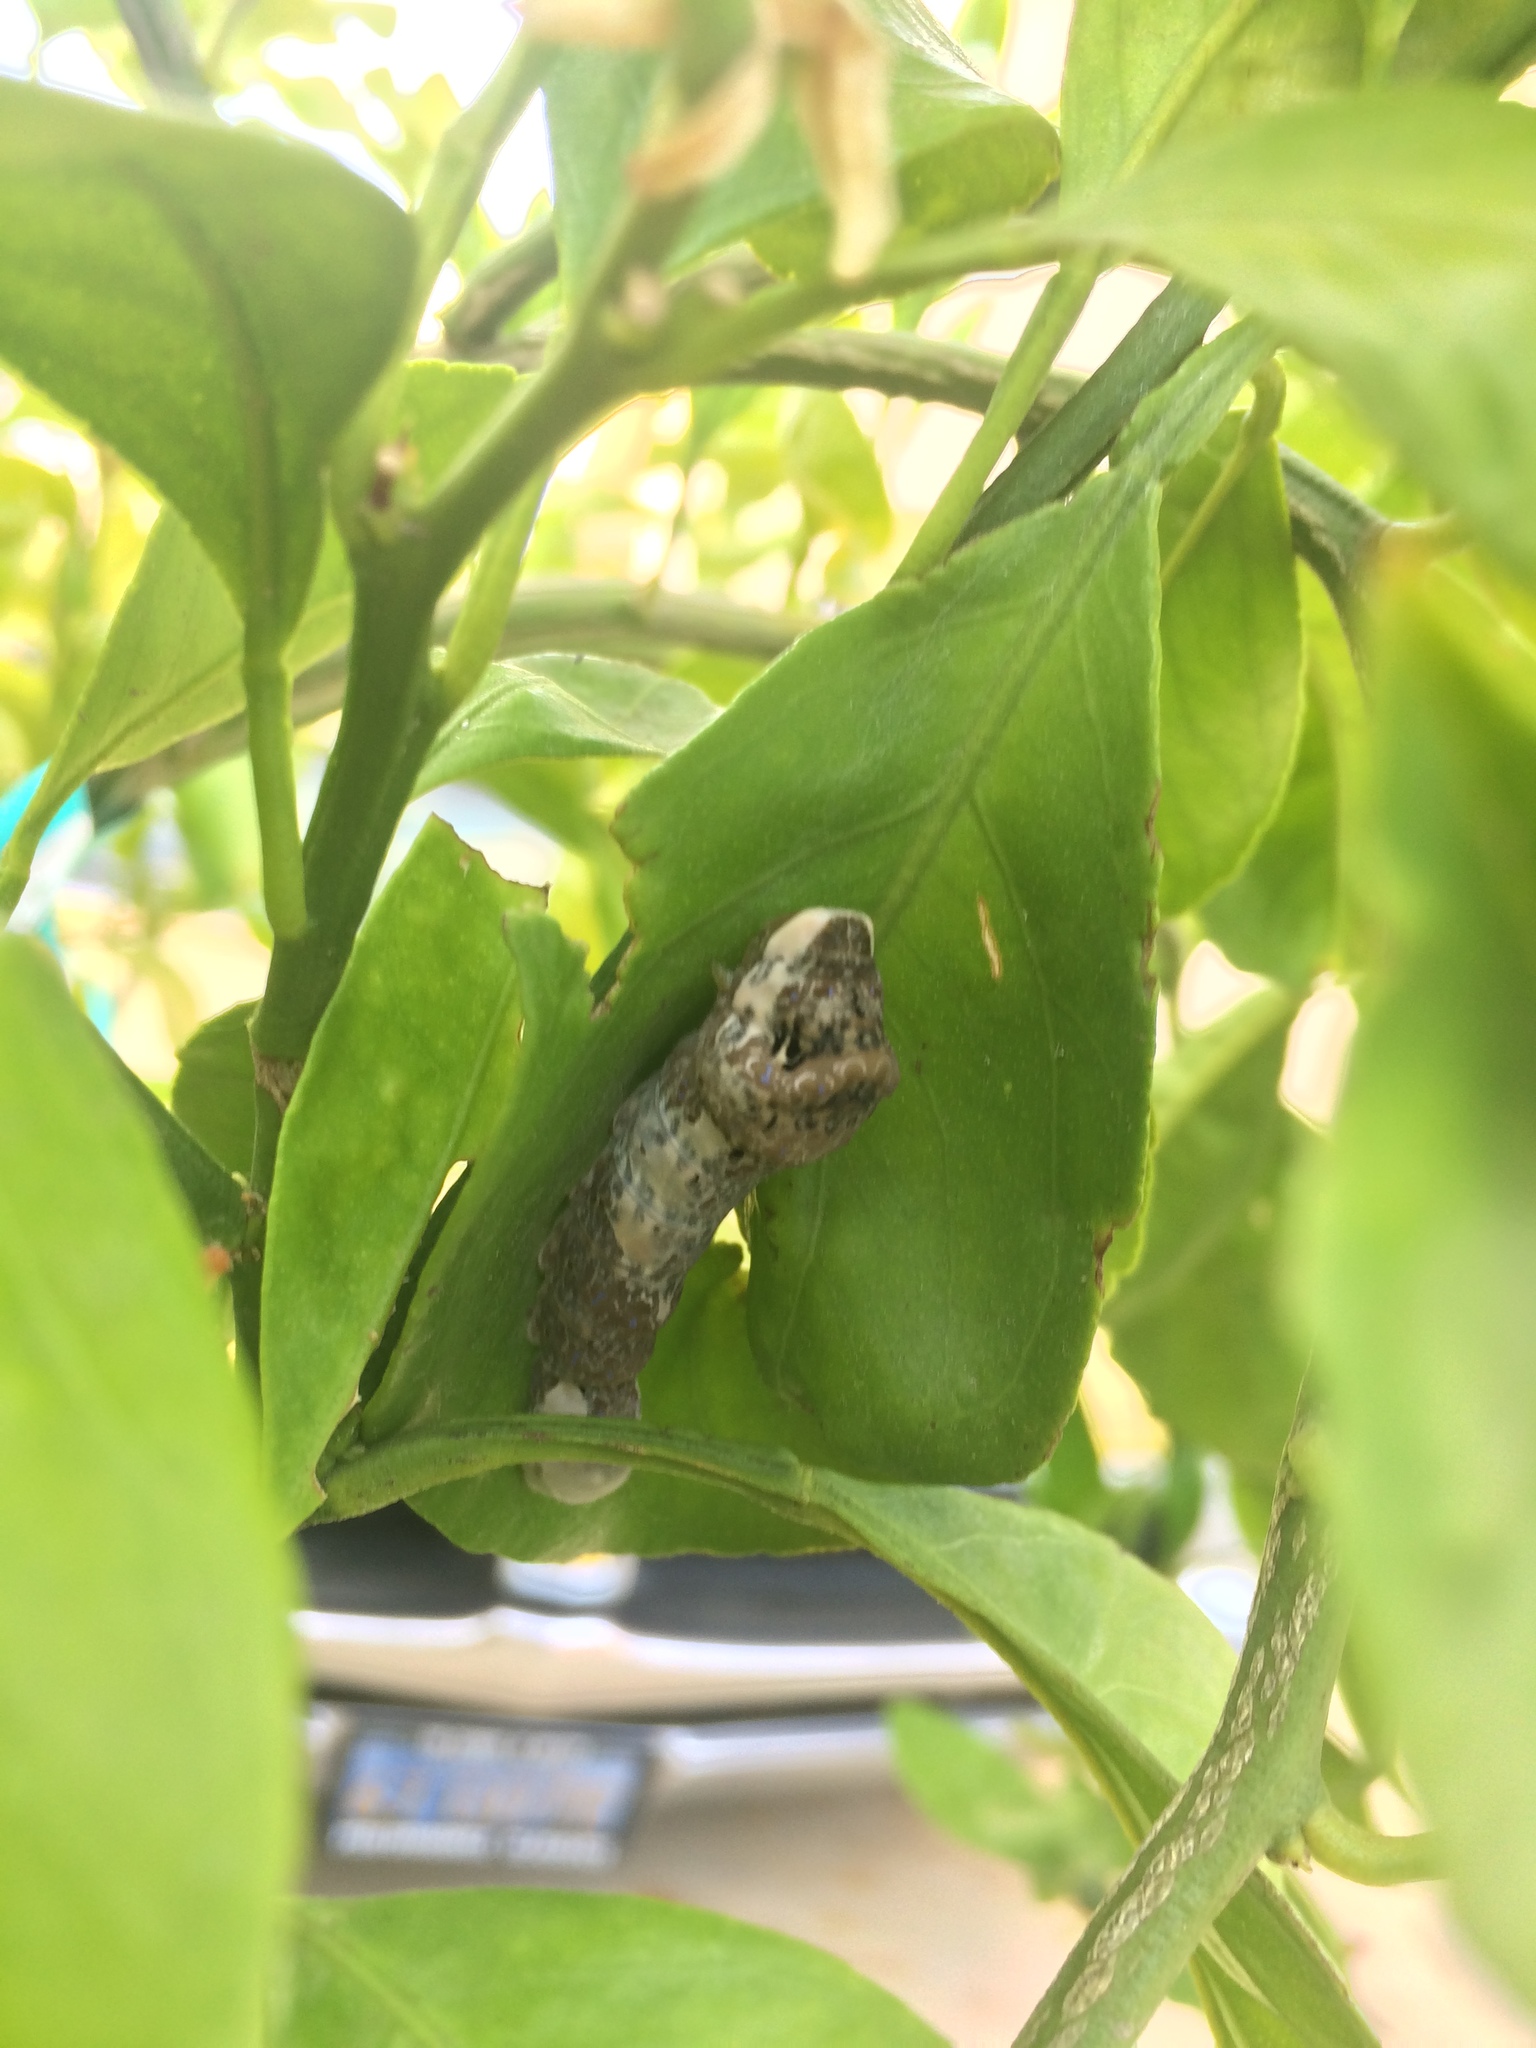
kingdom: Animalia
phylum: Arthropoda
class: Insecta
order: Lepidoptera
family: Papilionidae
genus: Papilio
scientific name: Papilio rumiko
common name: Western giant swallowtail
